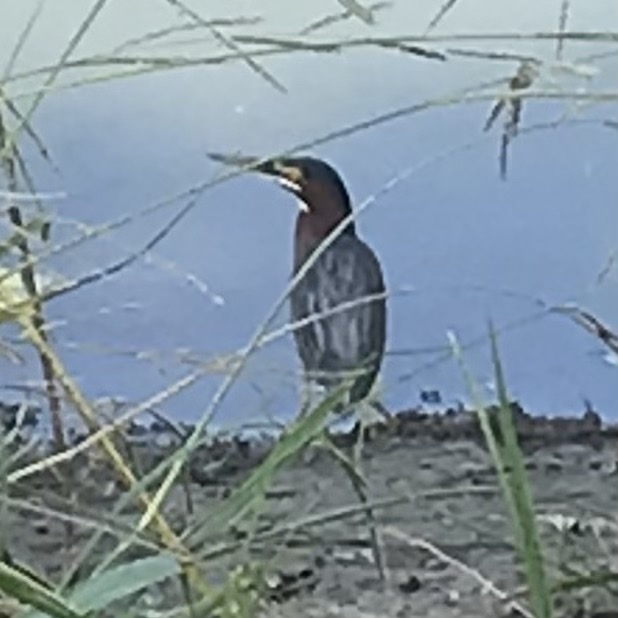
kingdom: Animalia
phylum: Chordata
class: Aves
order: Pelecaniformes
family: Ardeidae
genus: Butorides
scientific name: Butorides virescens
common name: Green heron
